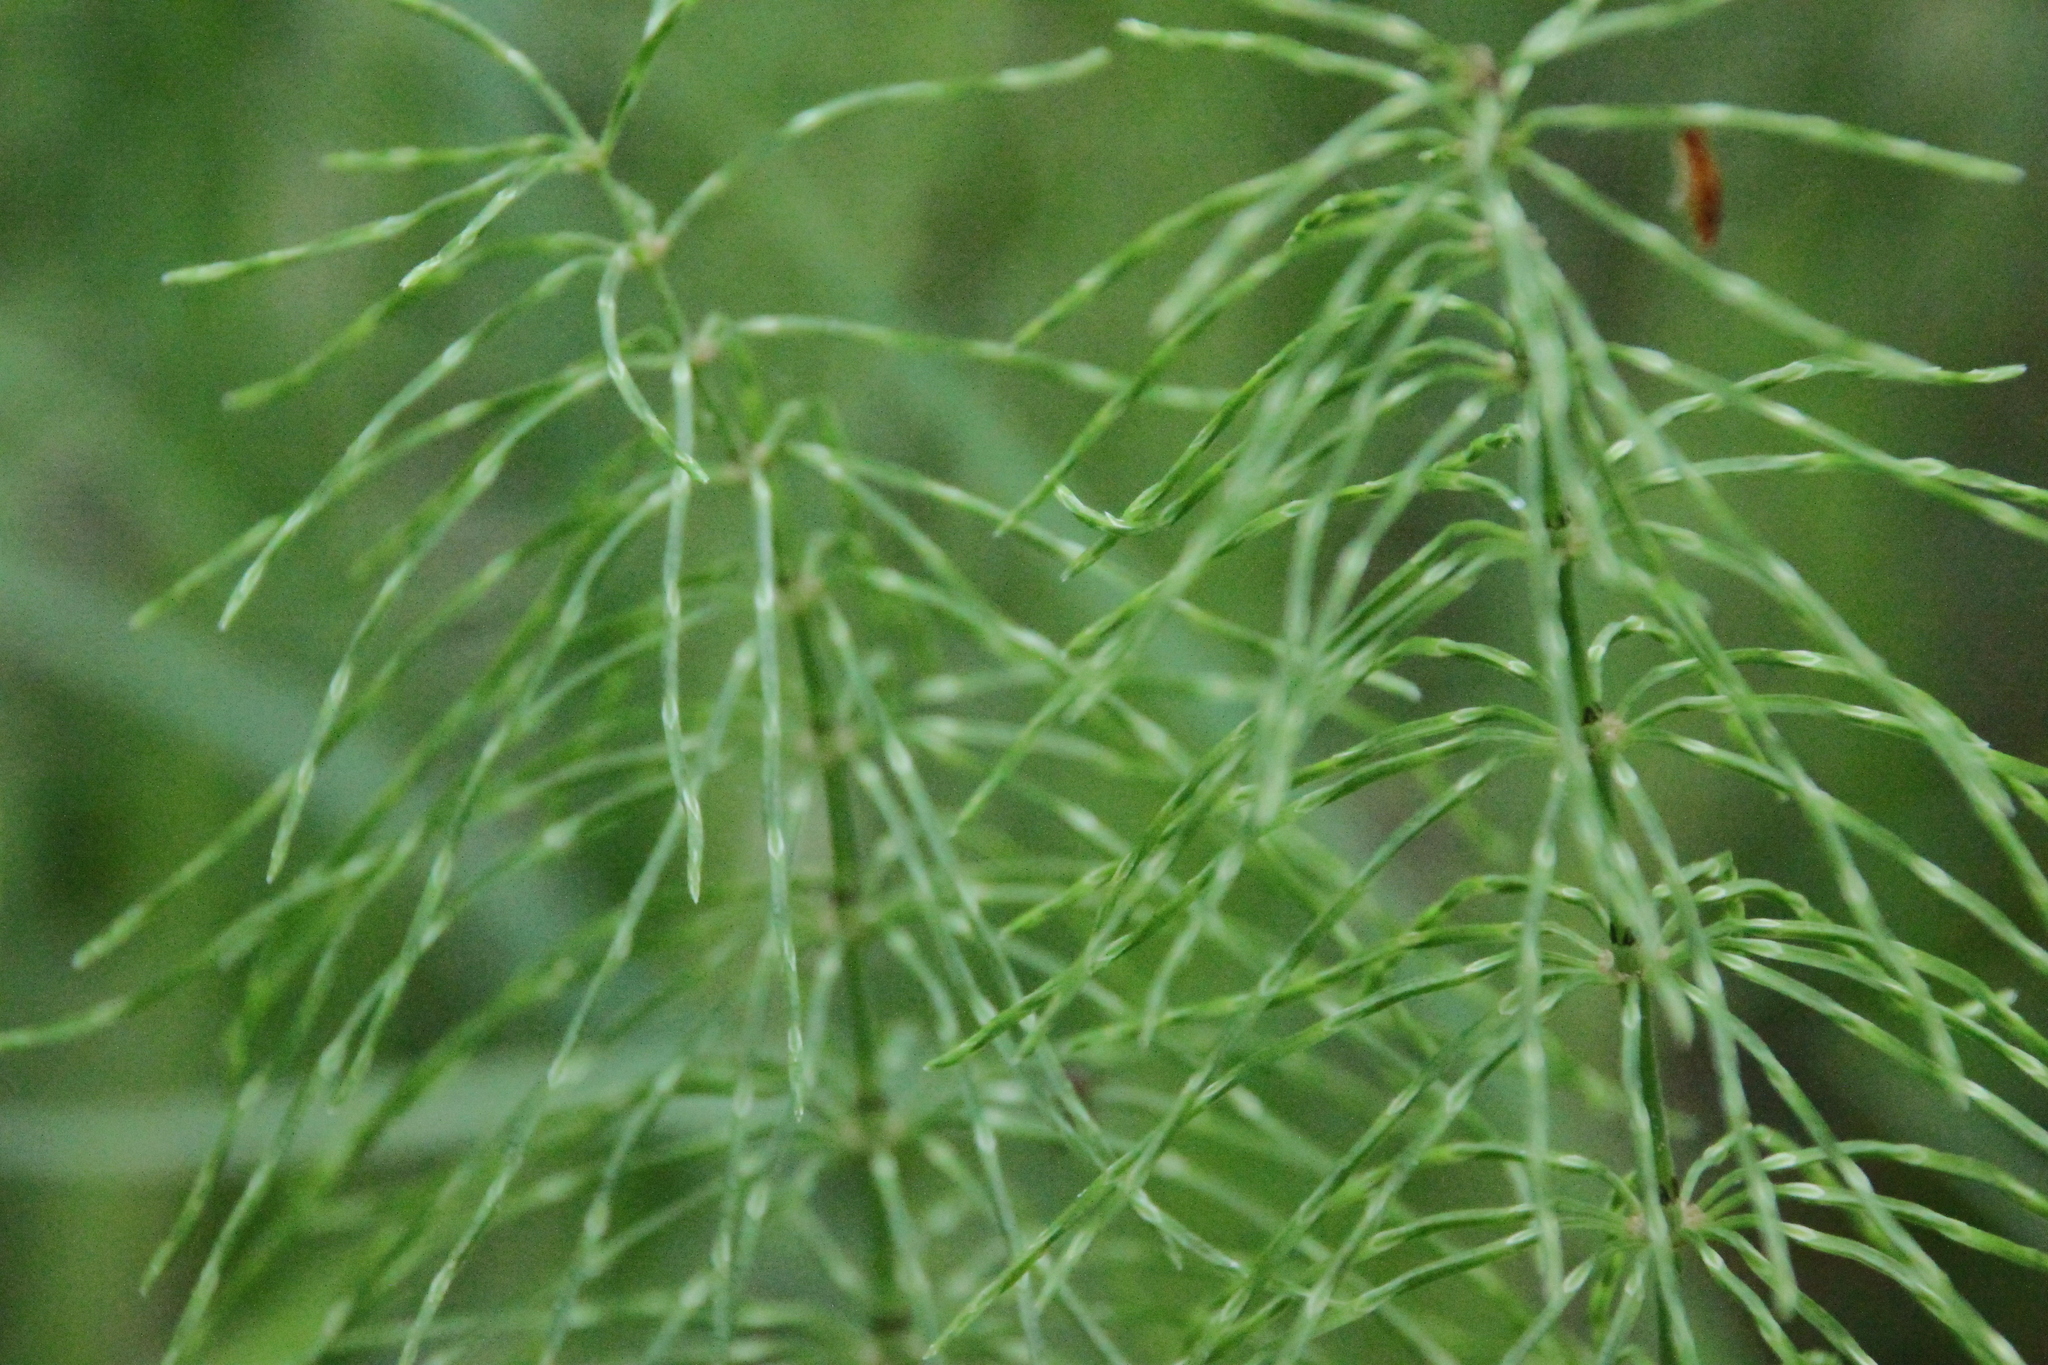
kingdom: Plantae
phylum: Tracheophyta
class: Polypodiopsida
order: Equisetales
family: Equisetaceae
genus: Equisetum
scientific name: Equisetum pratense
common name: Meadow horsetail
